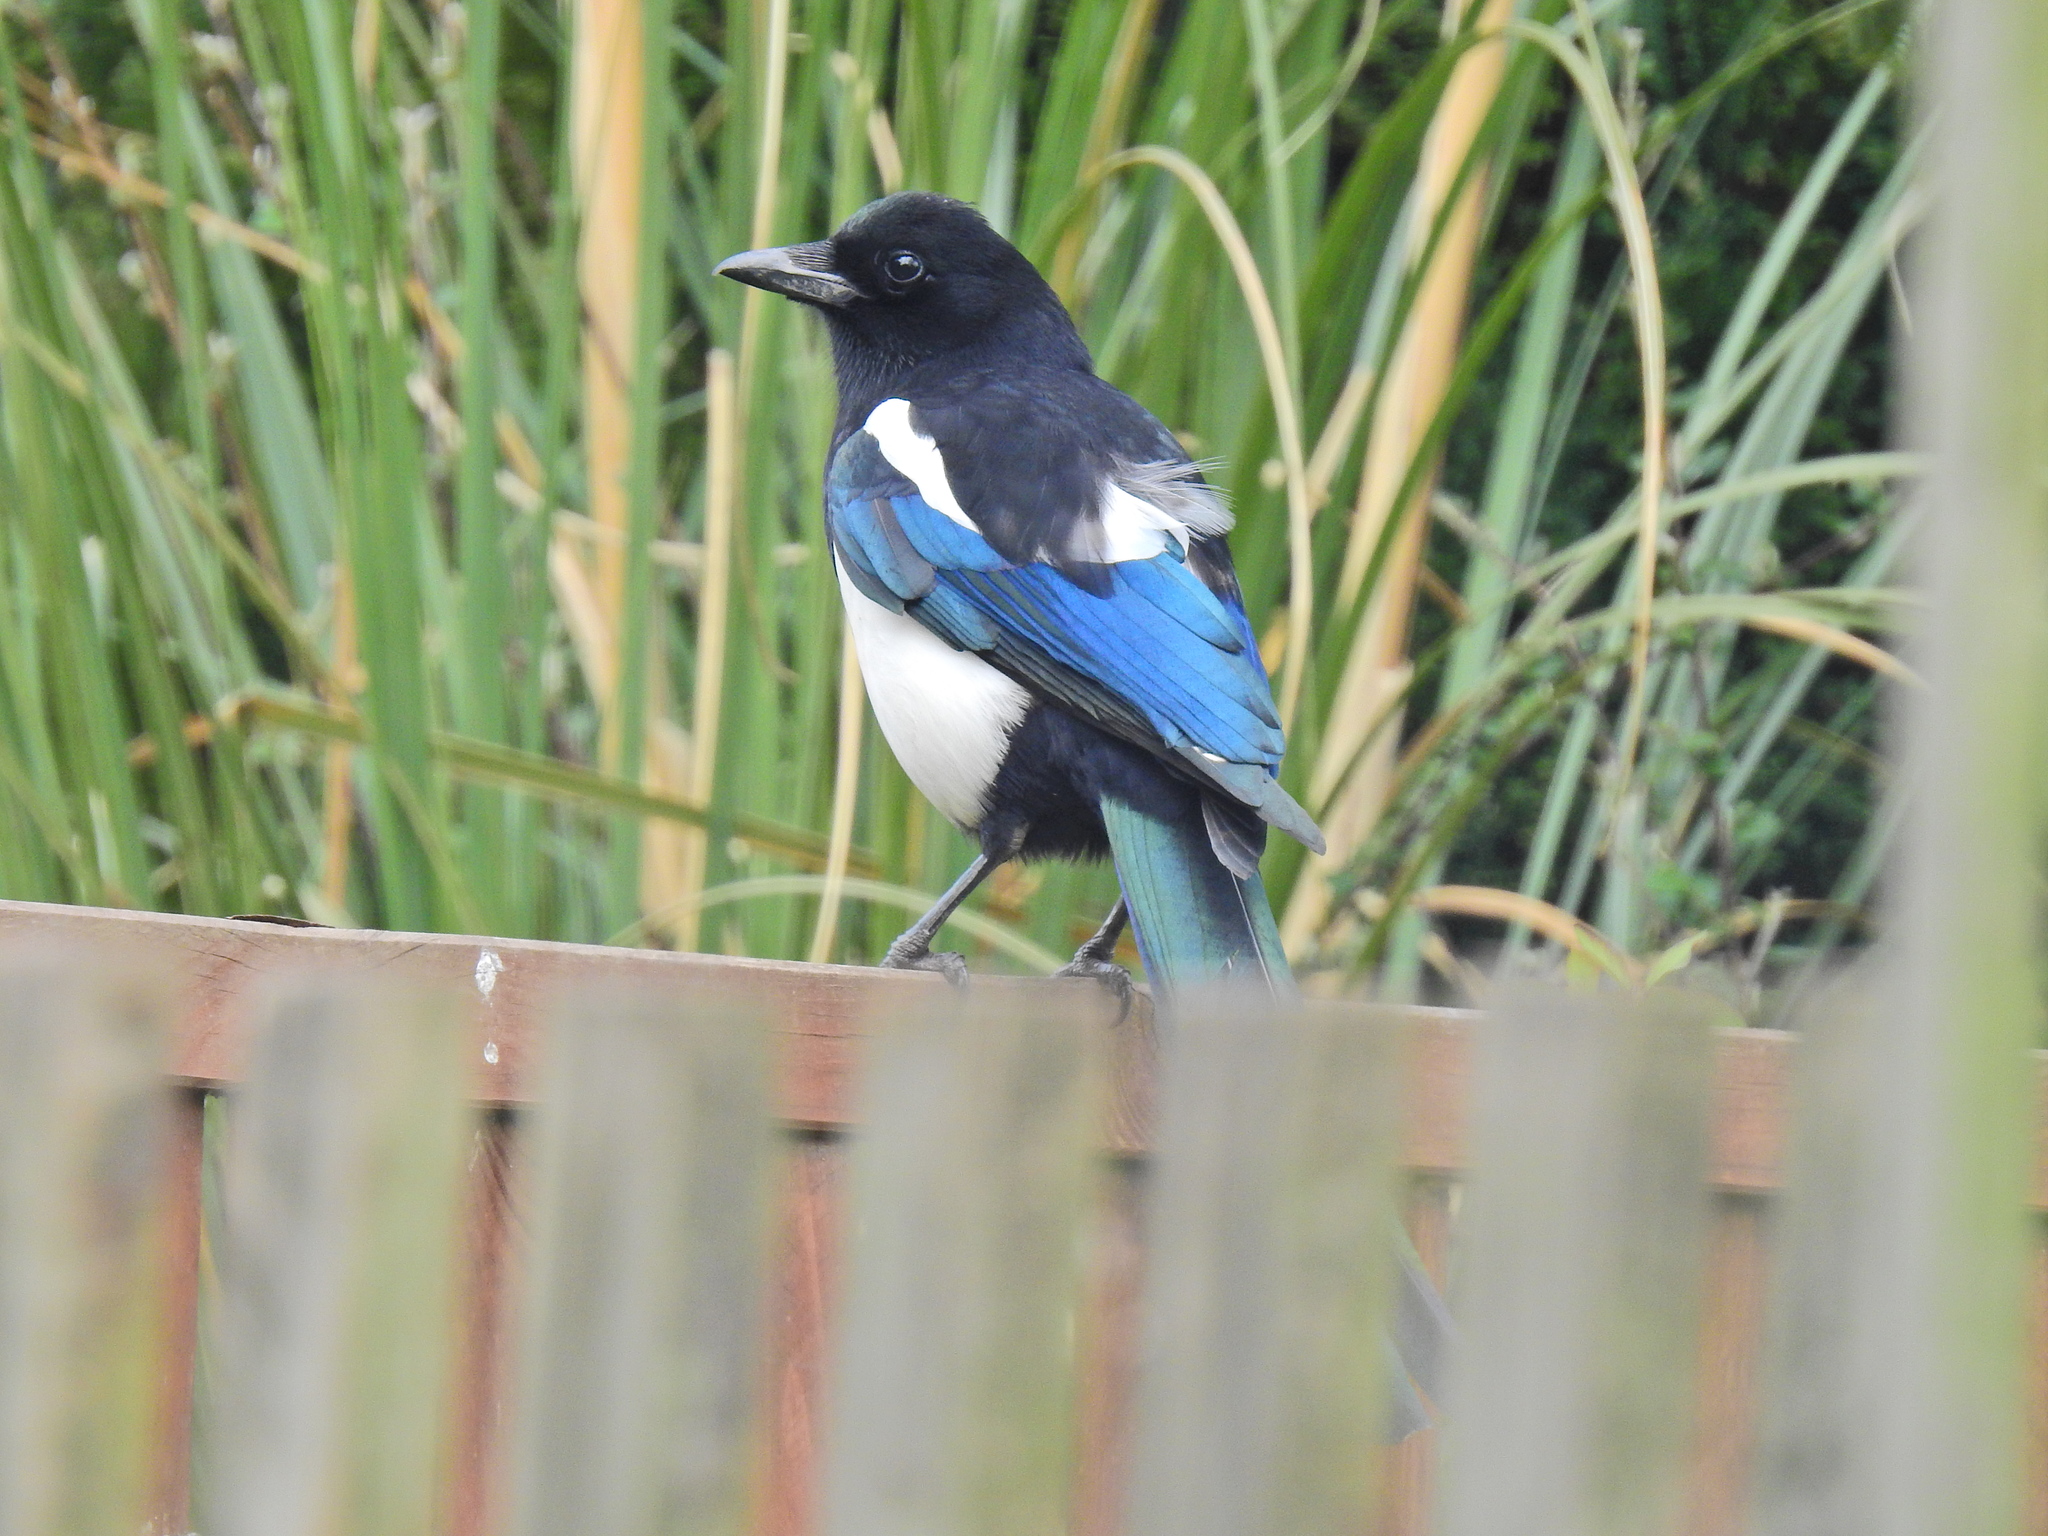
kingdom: Animalia
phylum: Chordata
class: Aves
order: Passeriformes
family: Corvidae
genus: Pica
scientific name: Pica pica
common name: Eurasian magpie
